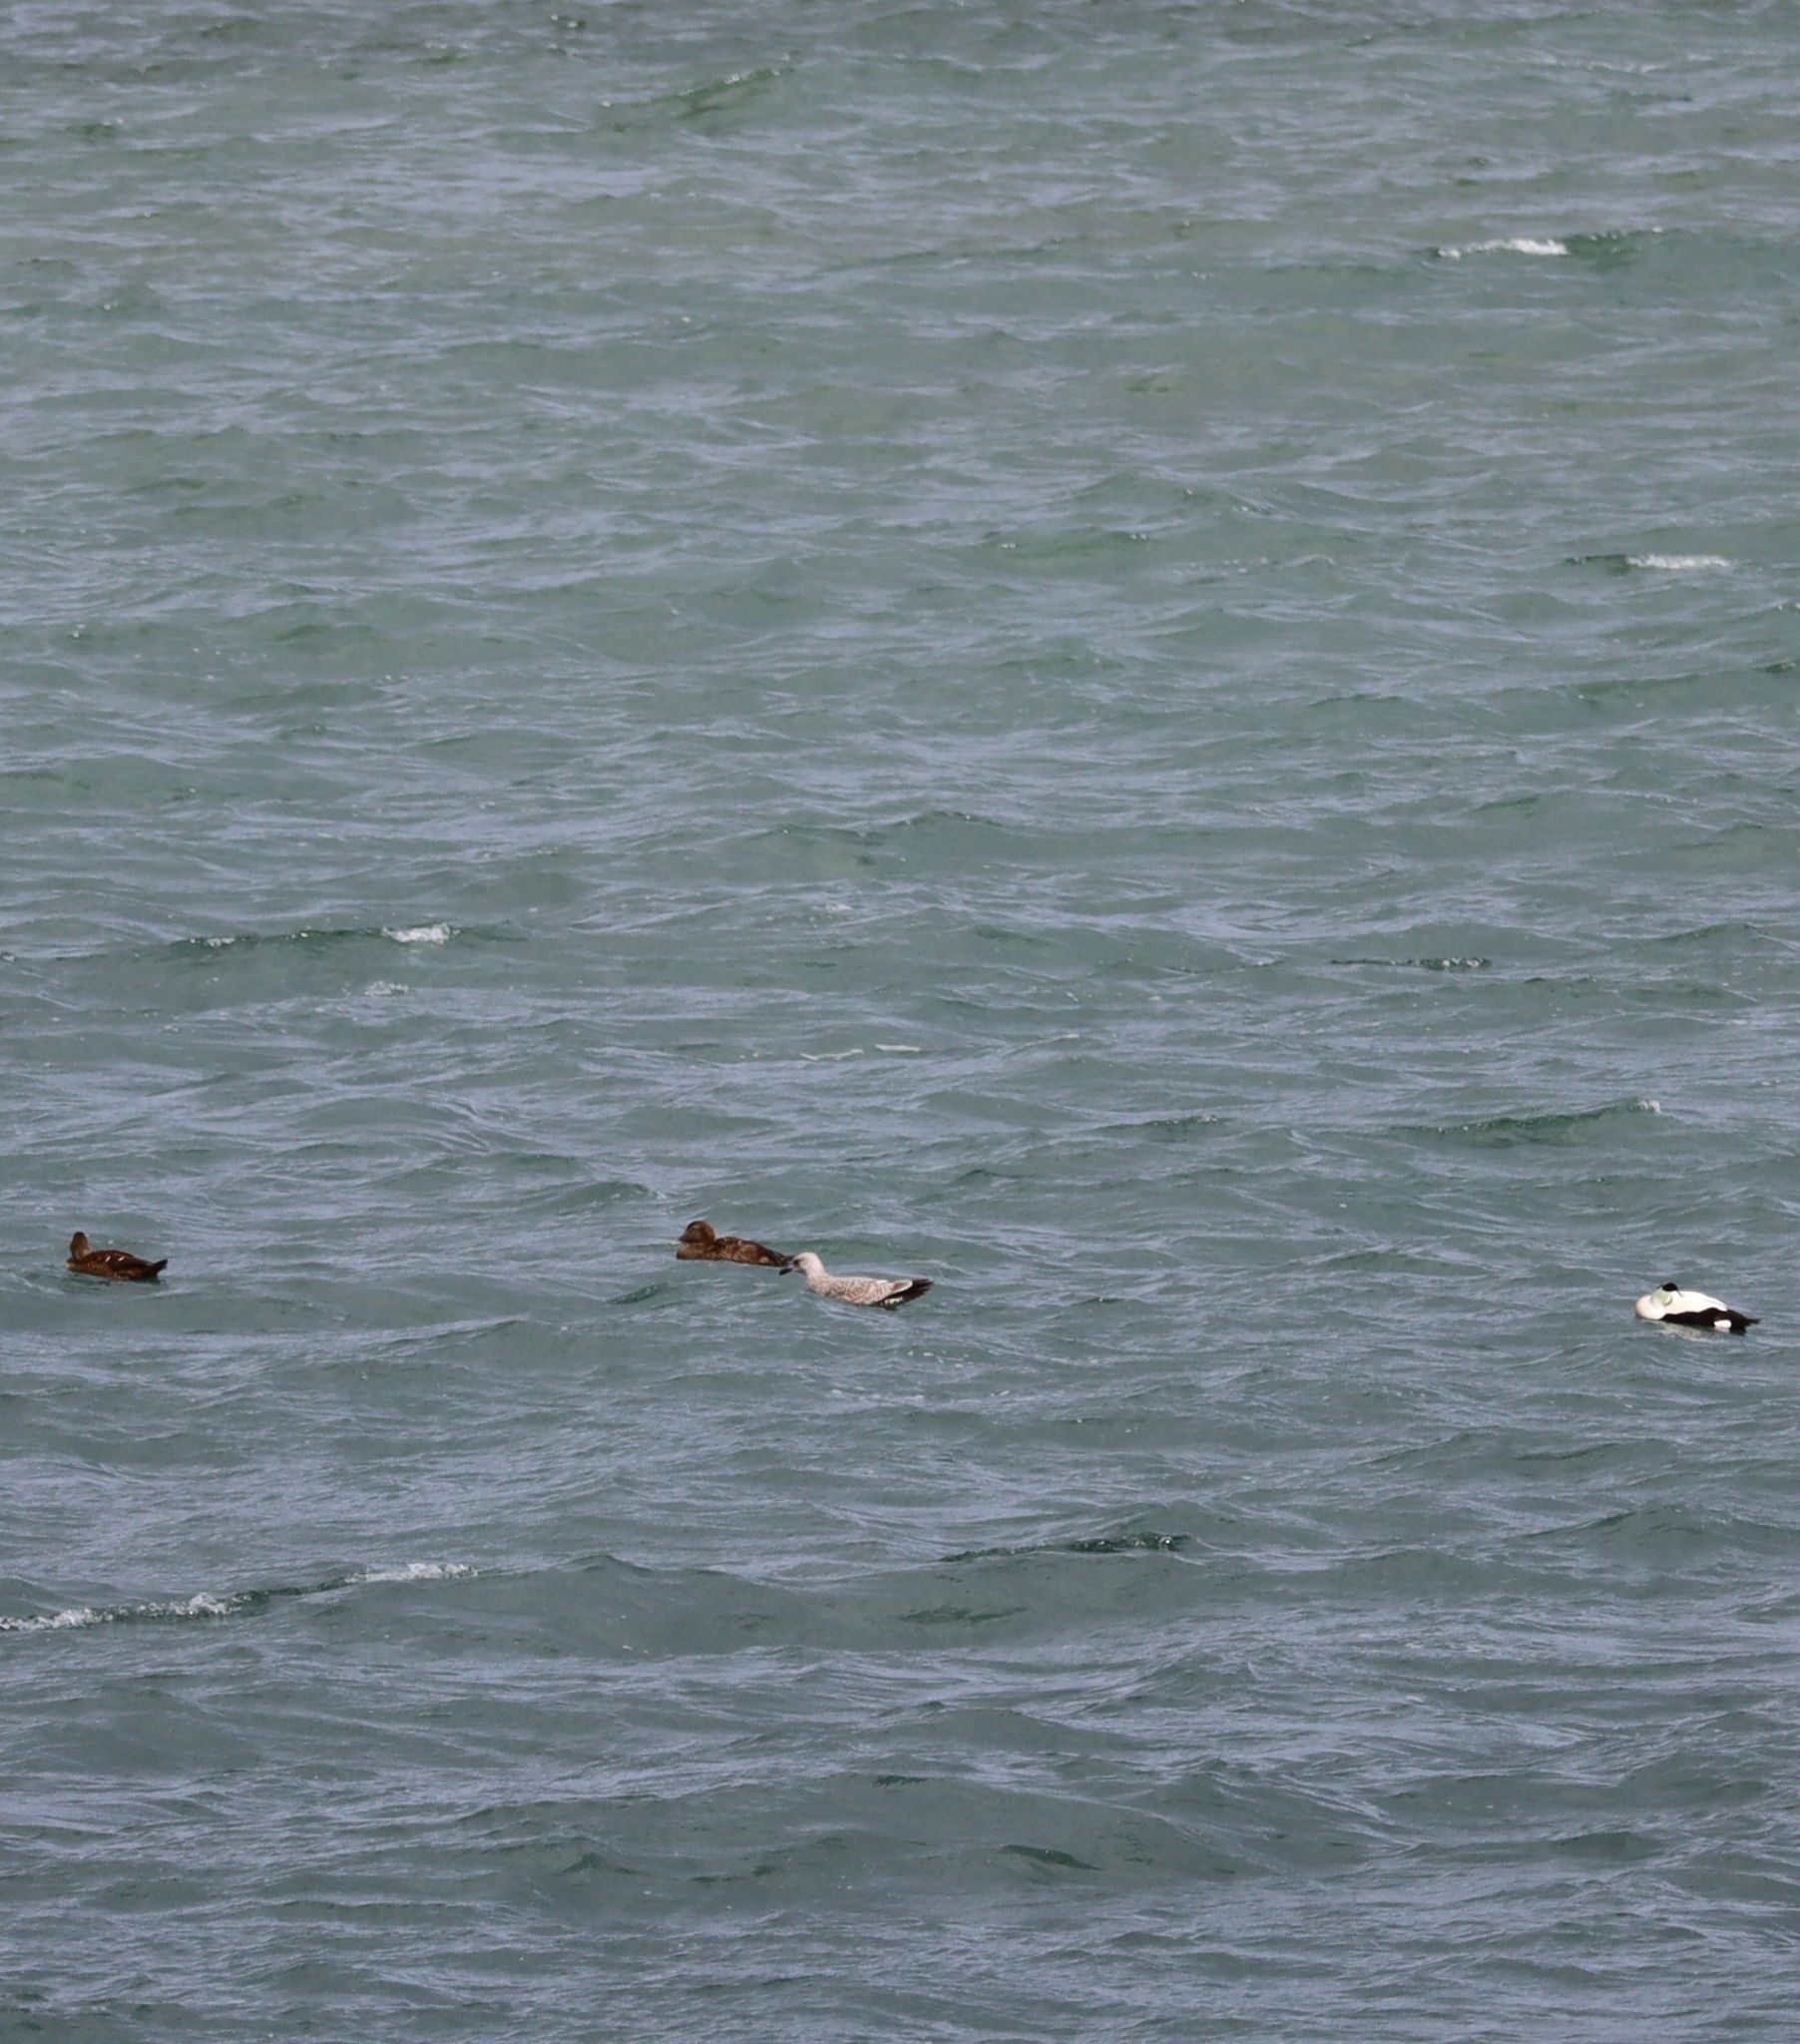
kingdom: Animalia
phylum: Chordata
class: Aves
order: Anseriformes
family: Anatidae
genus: Somateria
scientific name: Somateria mollissima
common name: Common eider
